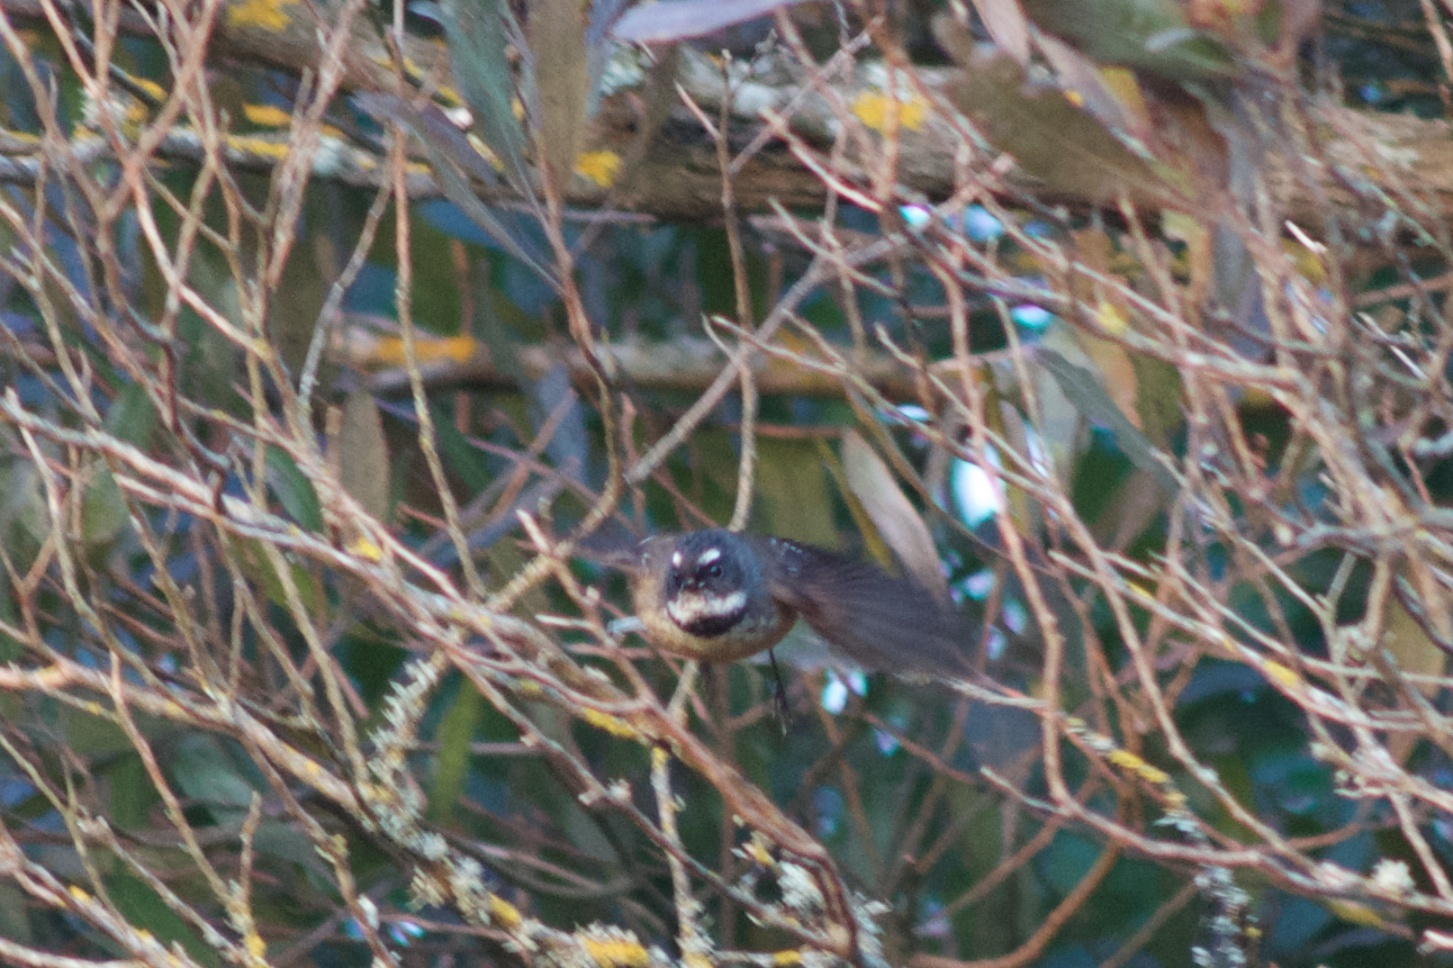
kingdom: Animalia
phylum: Chordata
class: Aves
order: Passeriformes
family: Rhipiduridae
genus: Rhipidura
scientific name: Rhipidura fuliginosa
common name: New zealand fantail
